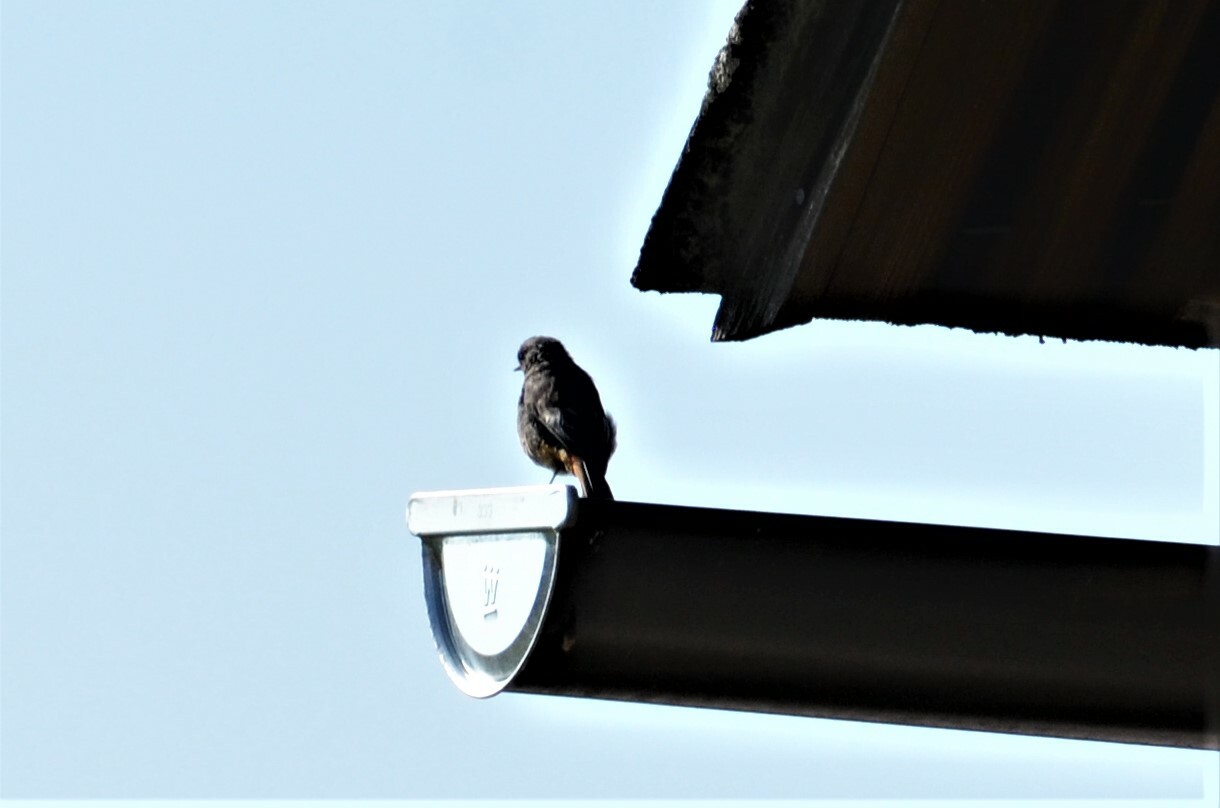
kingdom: Animalia
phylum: Chordata
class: Aves
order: Passeriformes
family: Muscicapidae
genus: Phoenicurus
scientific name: Phoenicurus ochruros
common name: Black redstart
